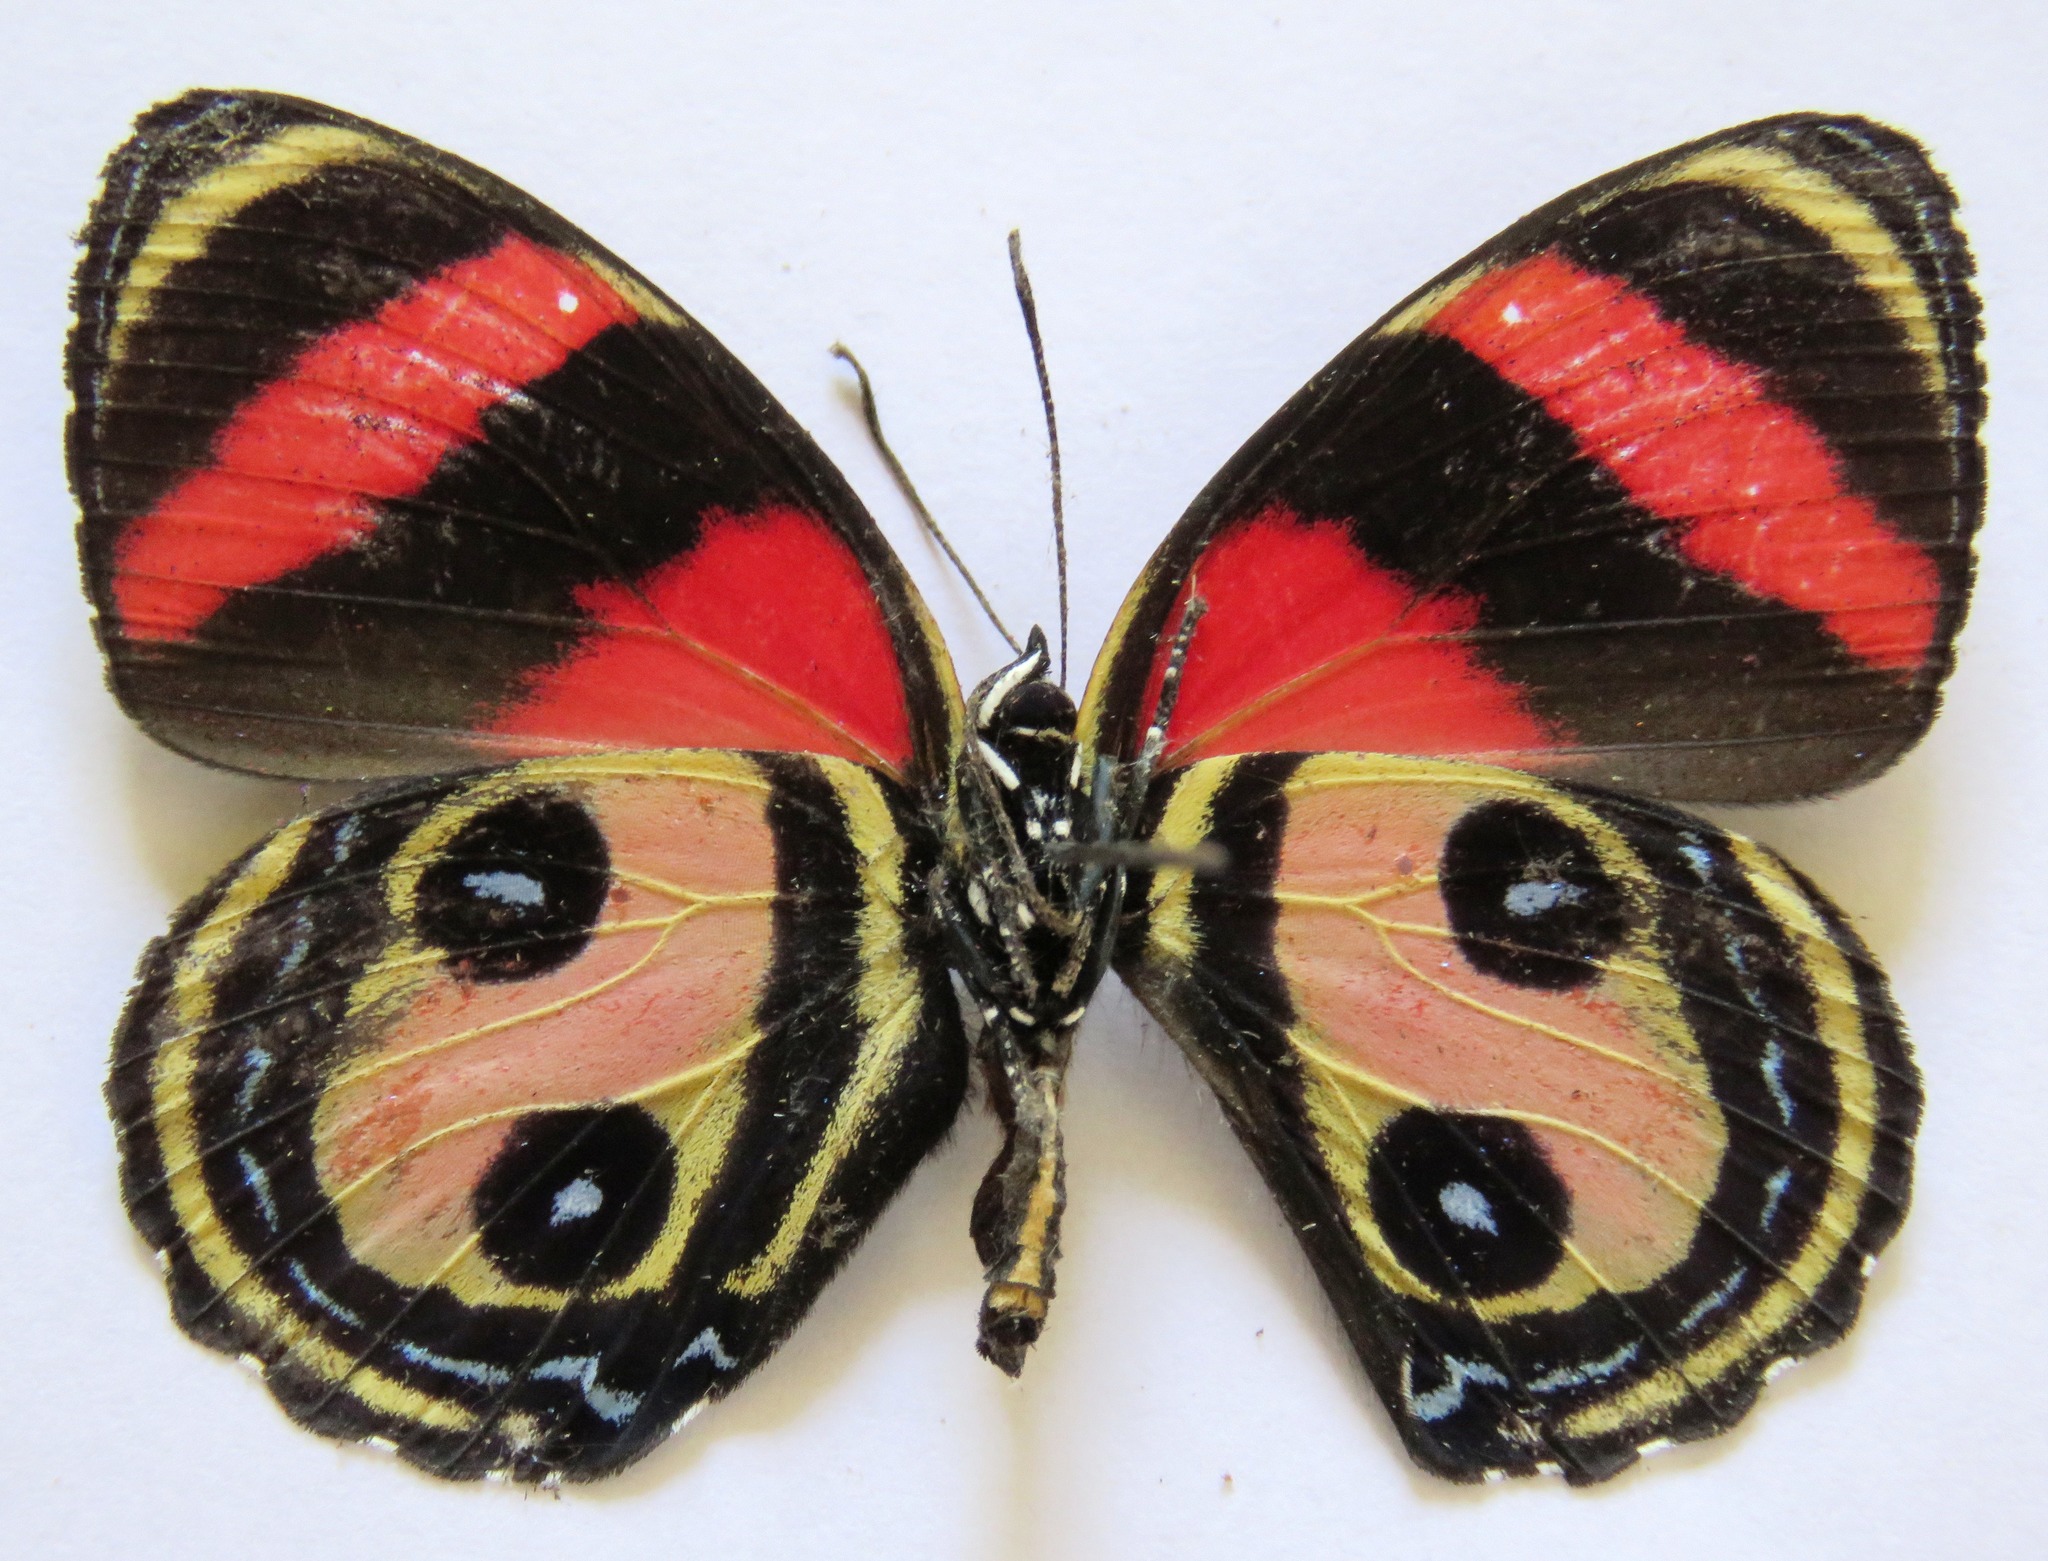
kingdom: Animalia
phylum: Arthropoda
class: Insecta
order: Lepidoptera
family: Nymphalidae
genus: Catagramma
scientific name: Catagramma Callicore pitheas
